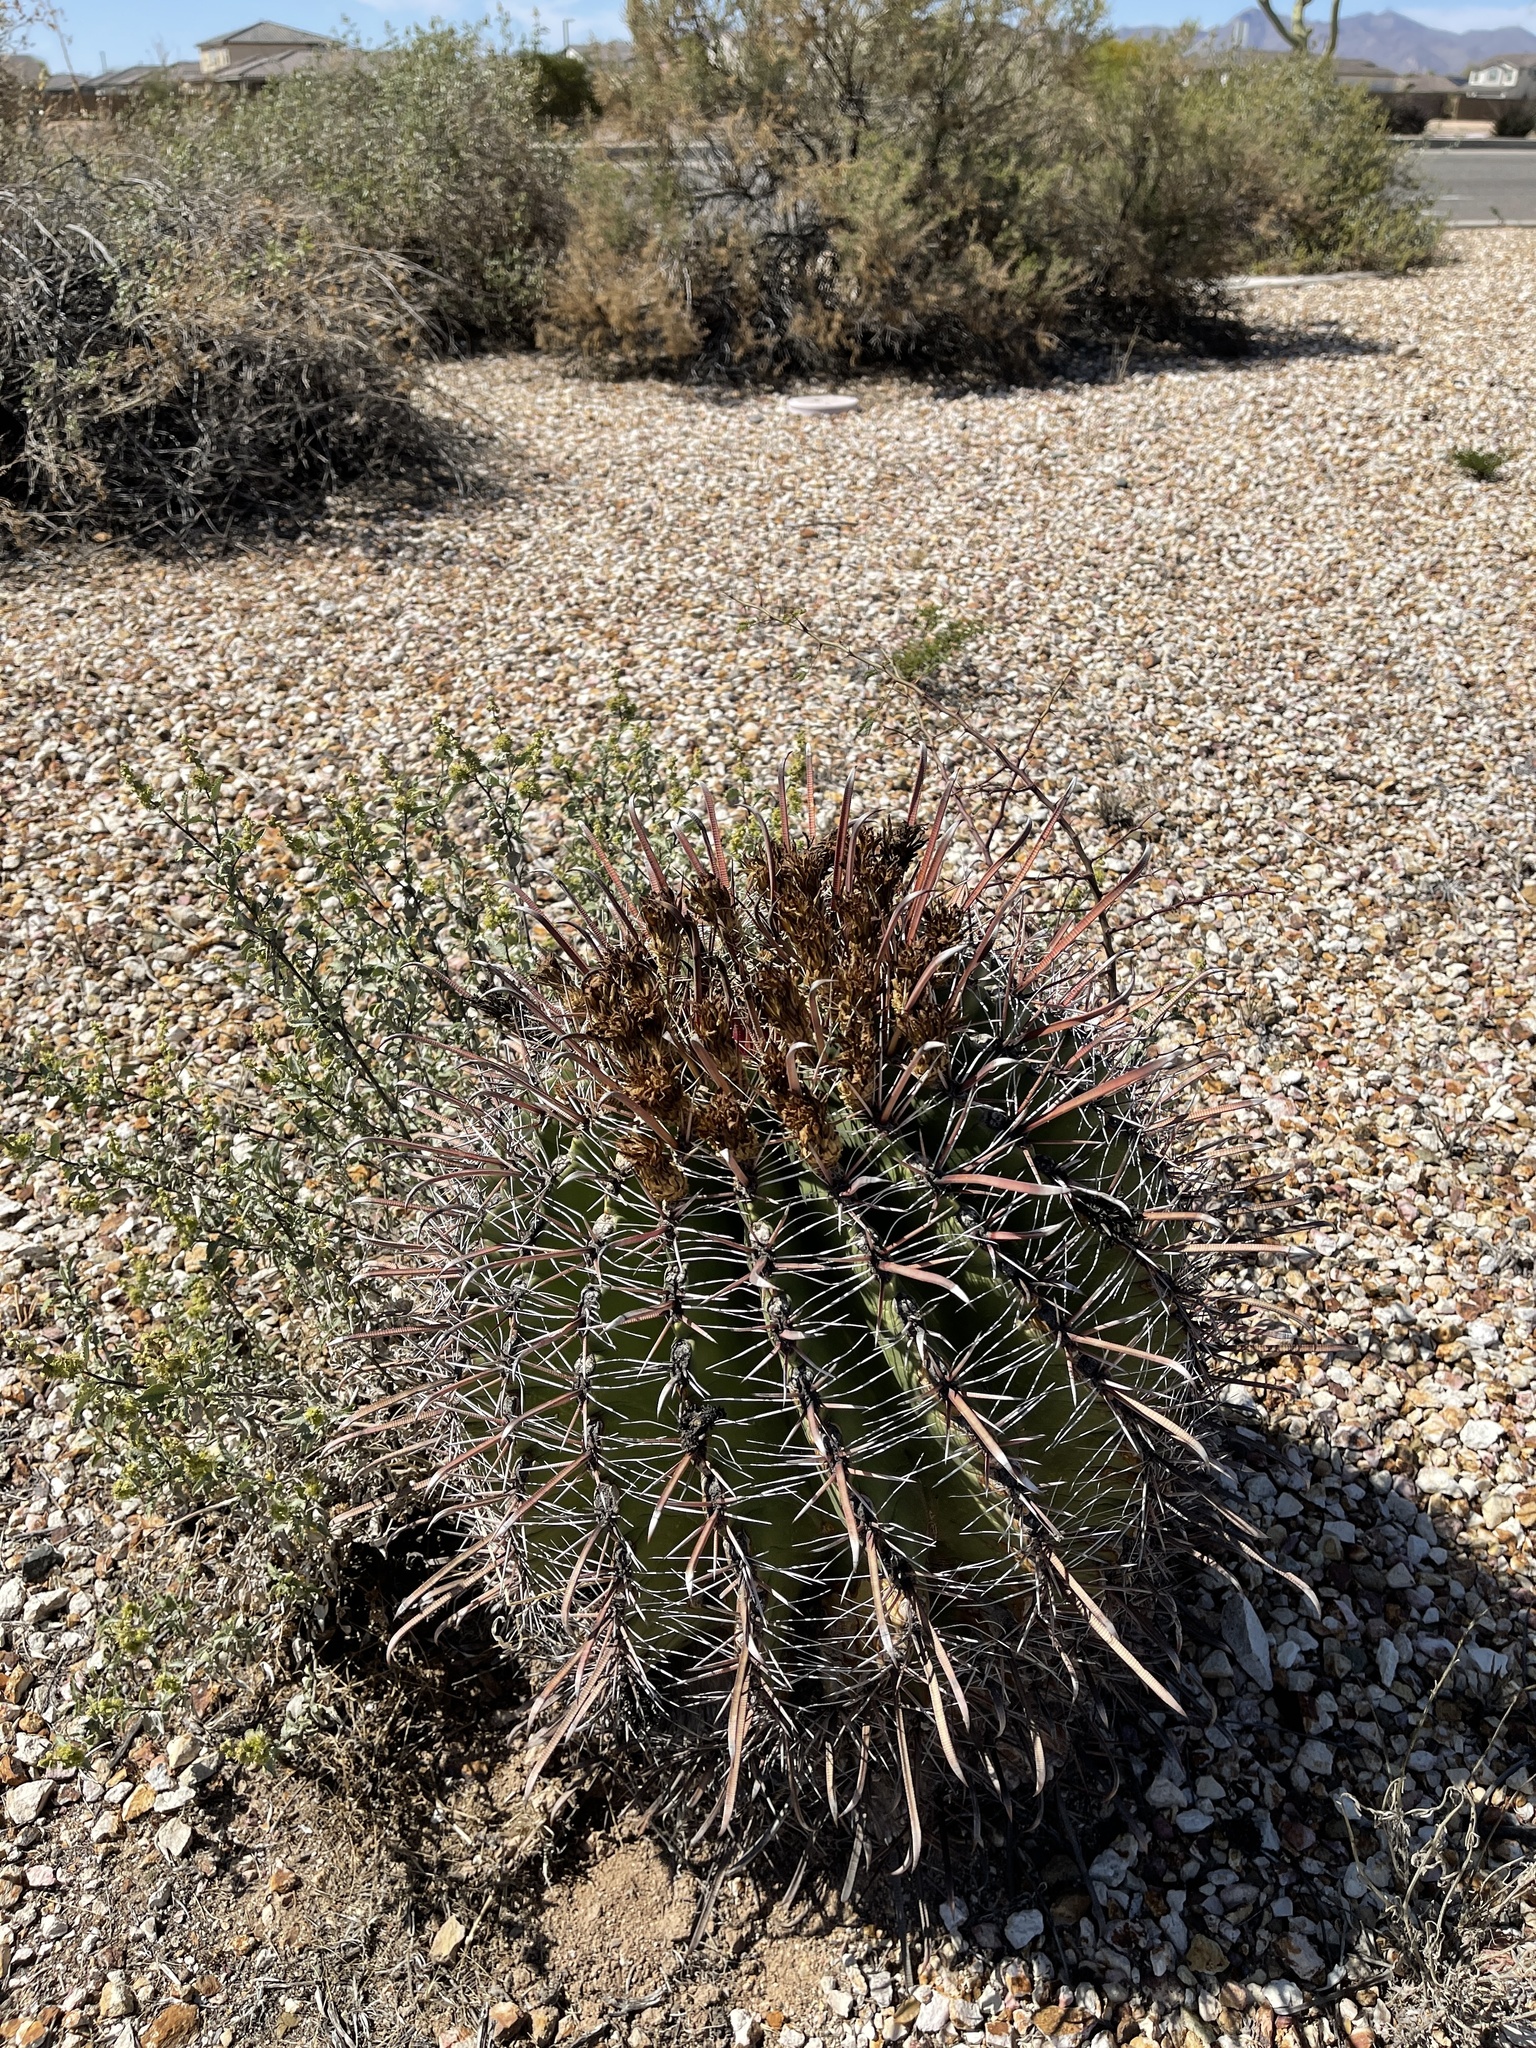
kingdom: Plantae
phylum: Tracheophyta
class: Magnoliopsida
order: Caryophyllales
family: Cactaceae
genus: Ferocactus
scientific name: Ferocactus wislizeni
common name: Candy barrel cactus
